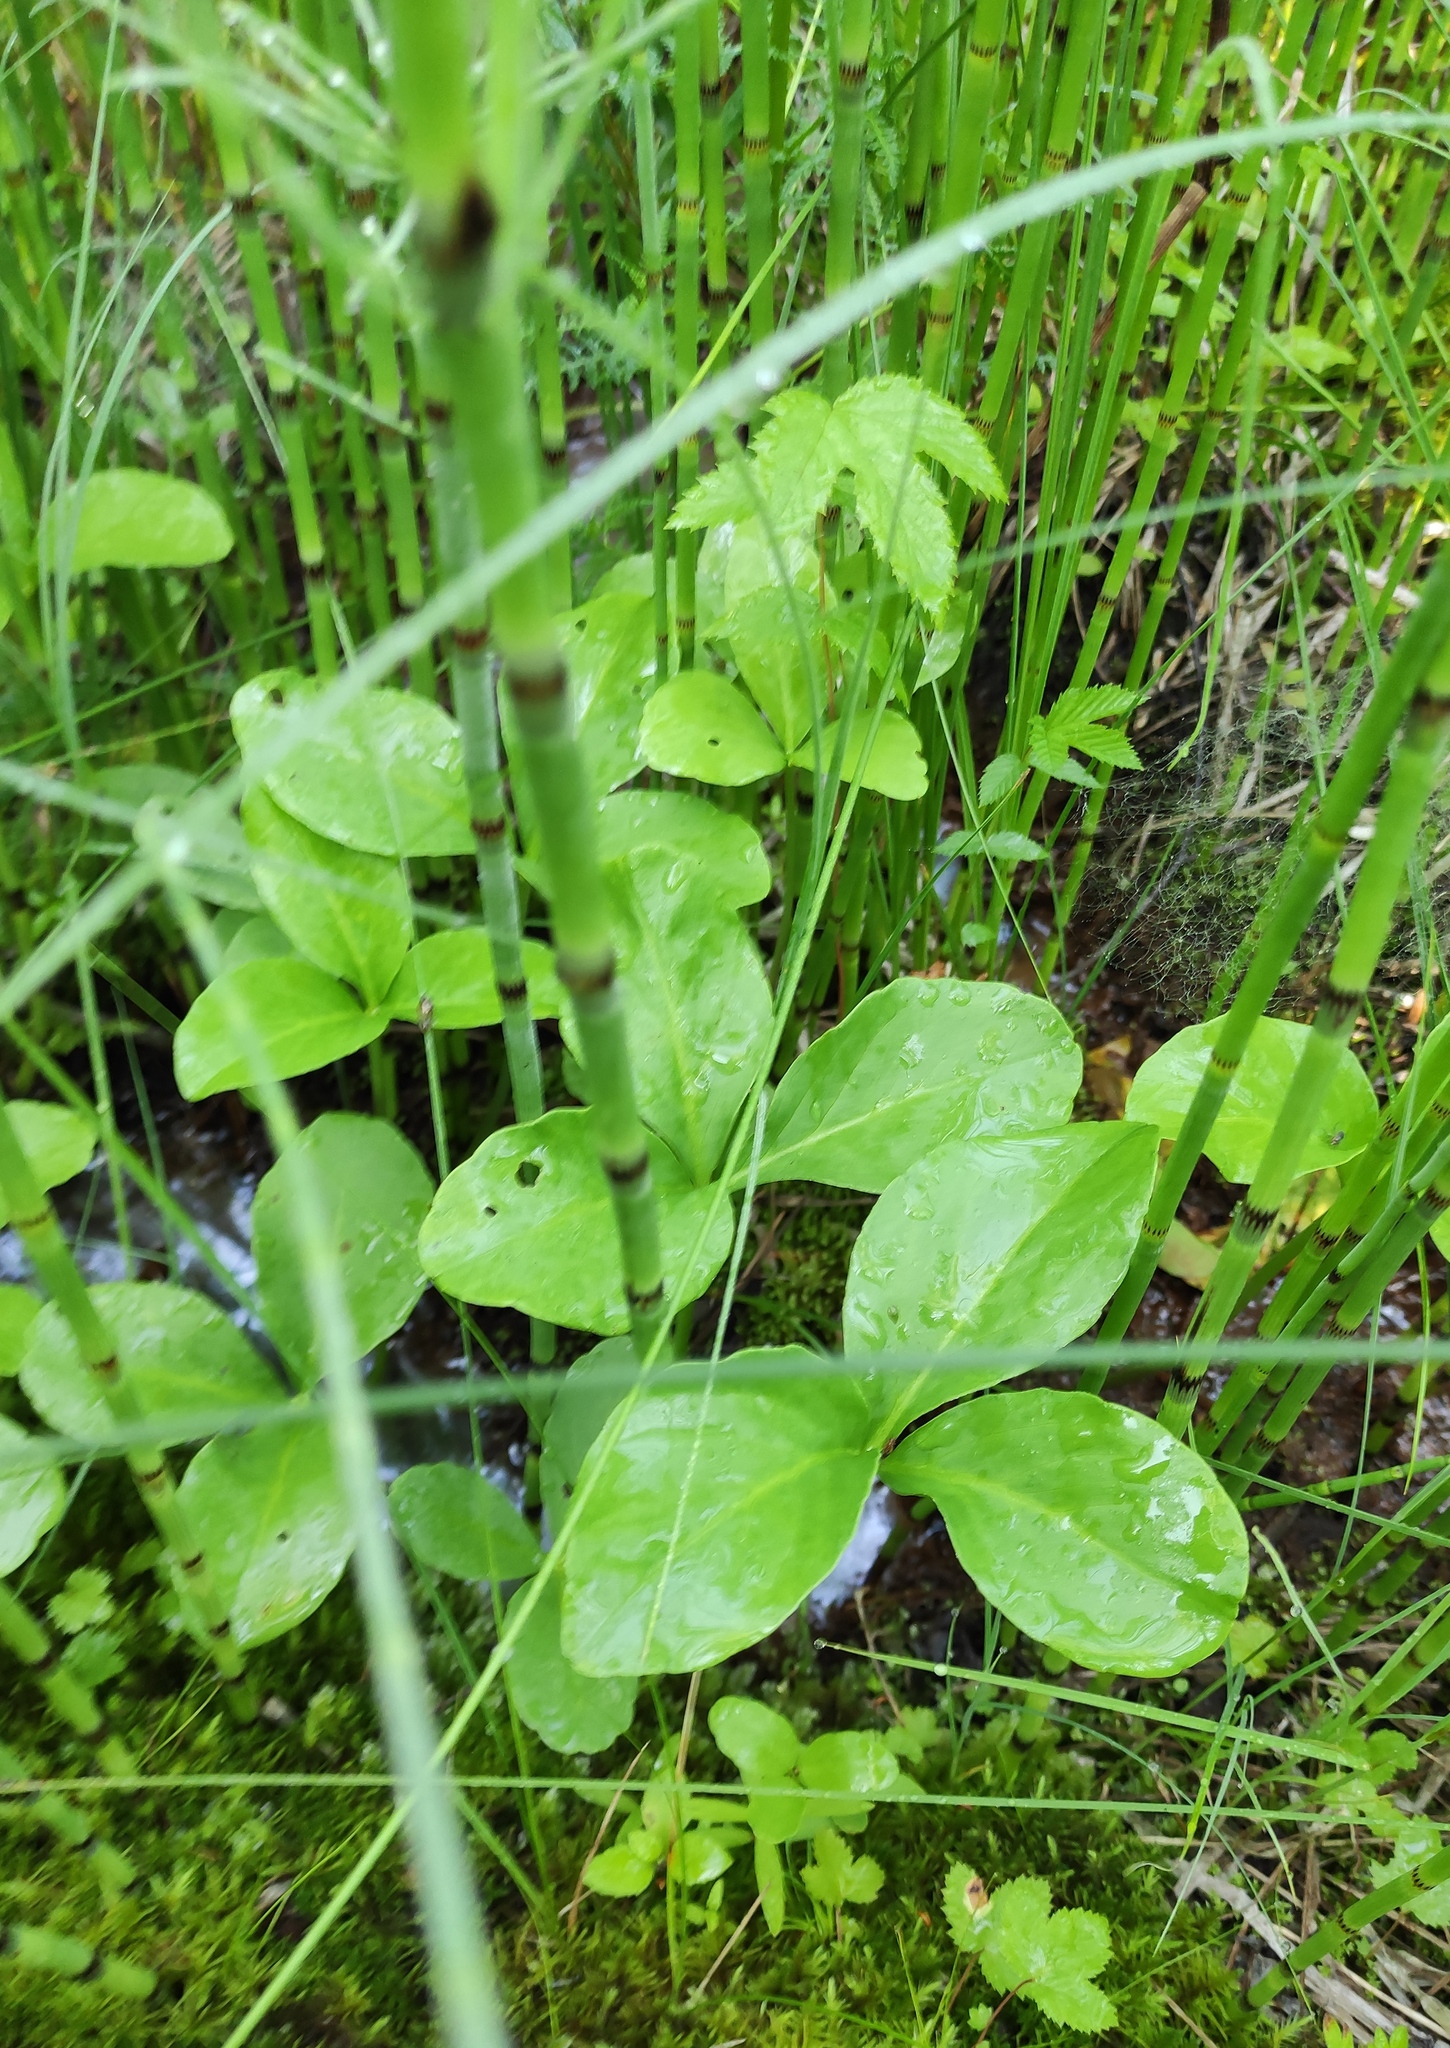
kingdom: Plantae
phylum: Tracheophyta
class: Magnoliopsida
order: Asterales
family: Menyanthaceae
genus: Menyanthes
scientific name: Menyanthes trifoliata
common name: Bogbean
